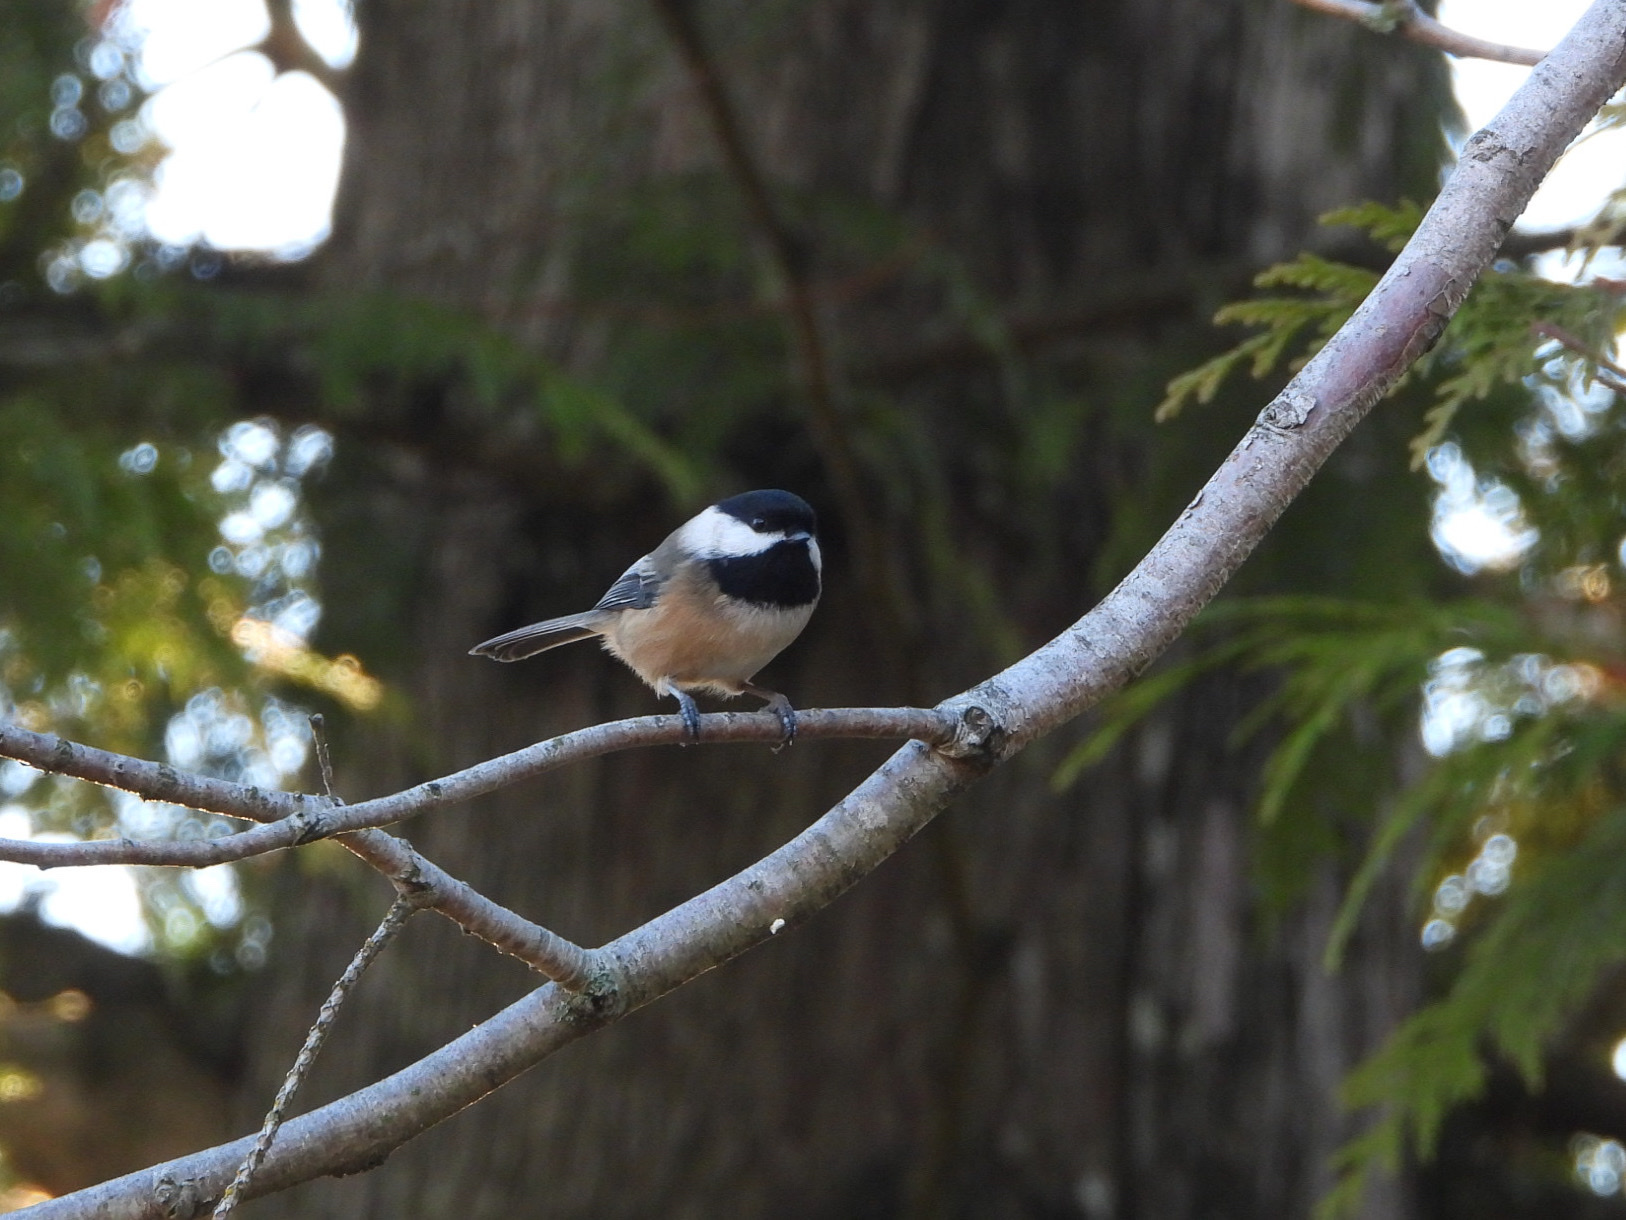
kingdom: Animalia
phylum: Chordata
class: Aves
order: Passeriformes
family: Paridae
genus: Poecile
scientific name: Poecile atricapillus
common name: Black-capped chickadee
